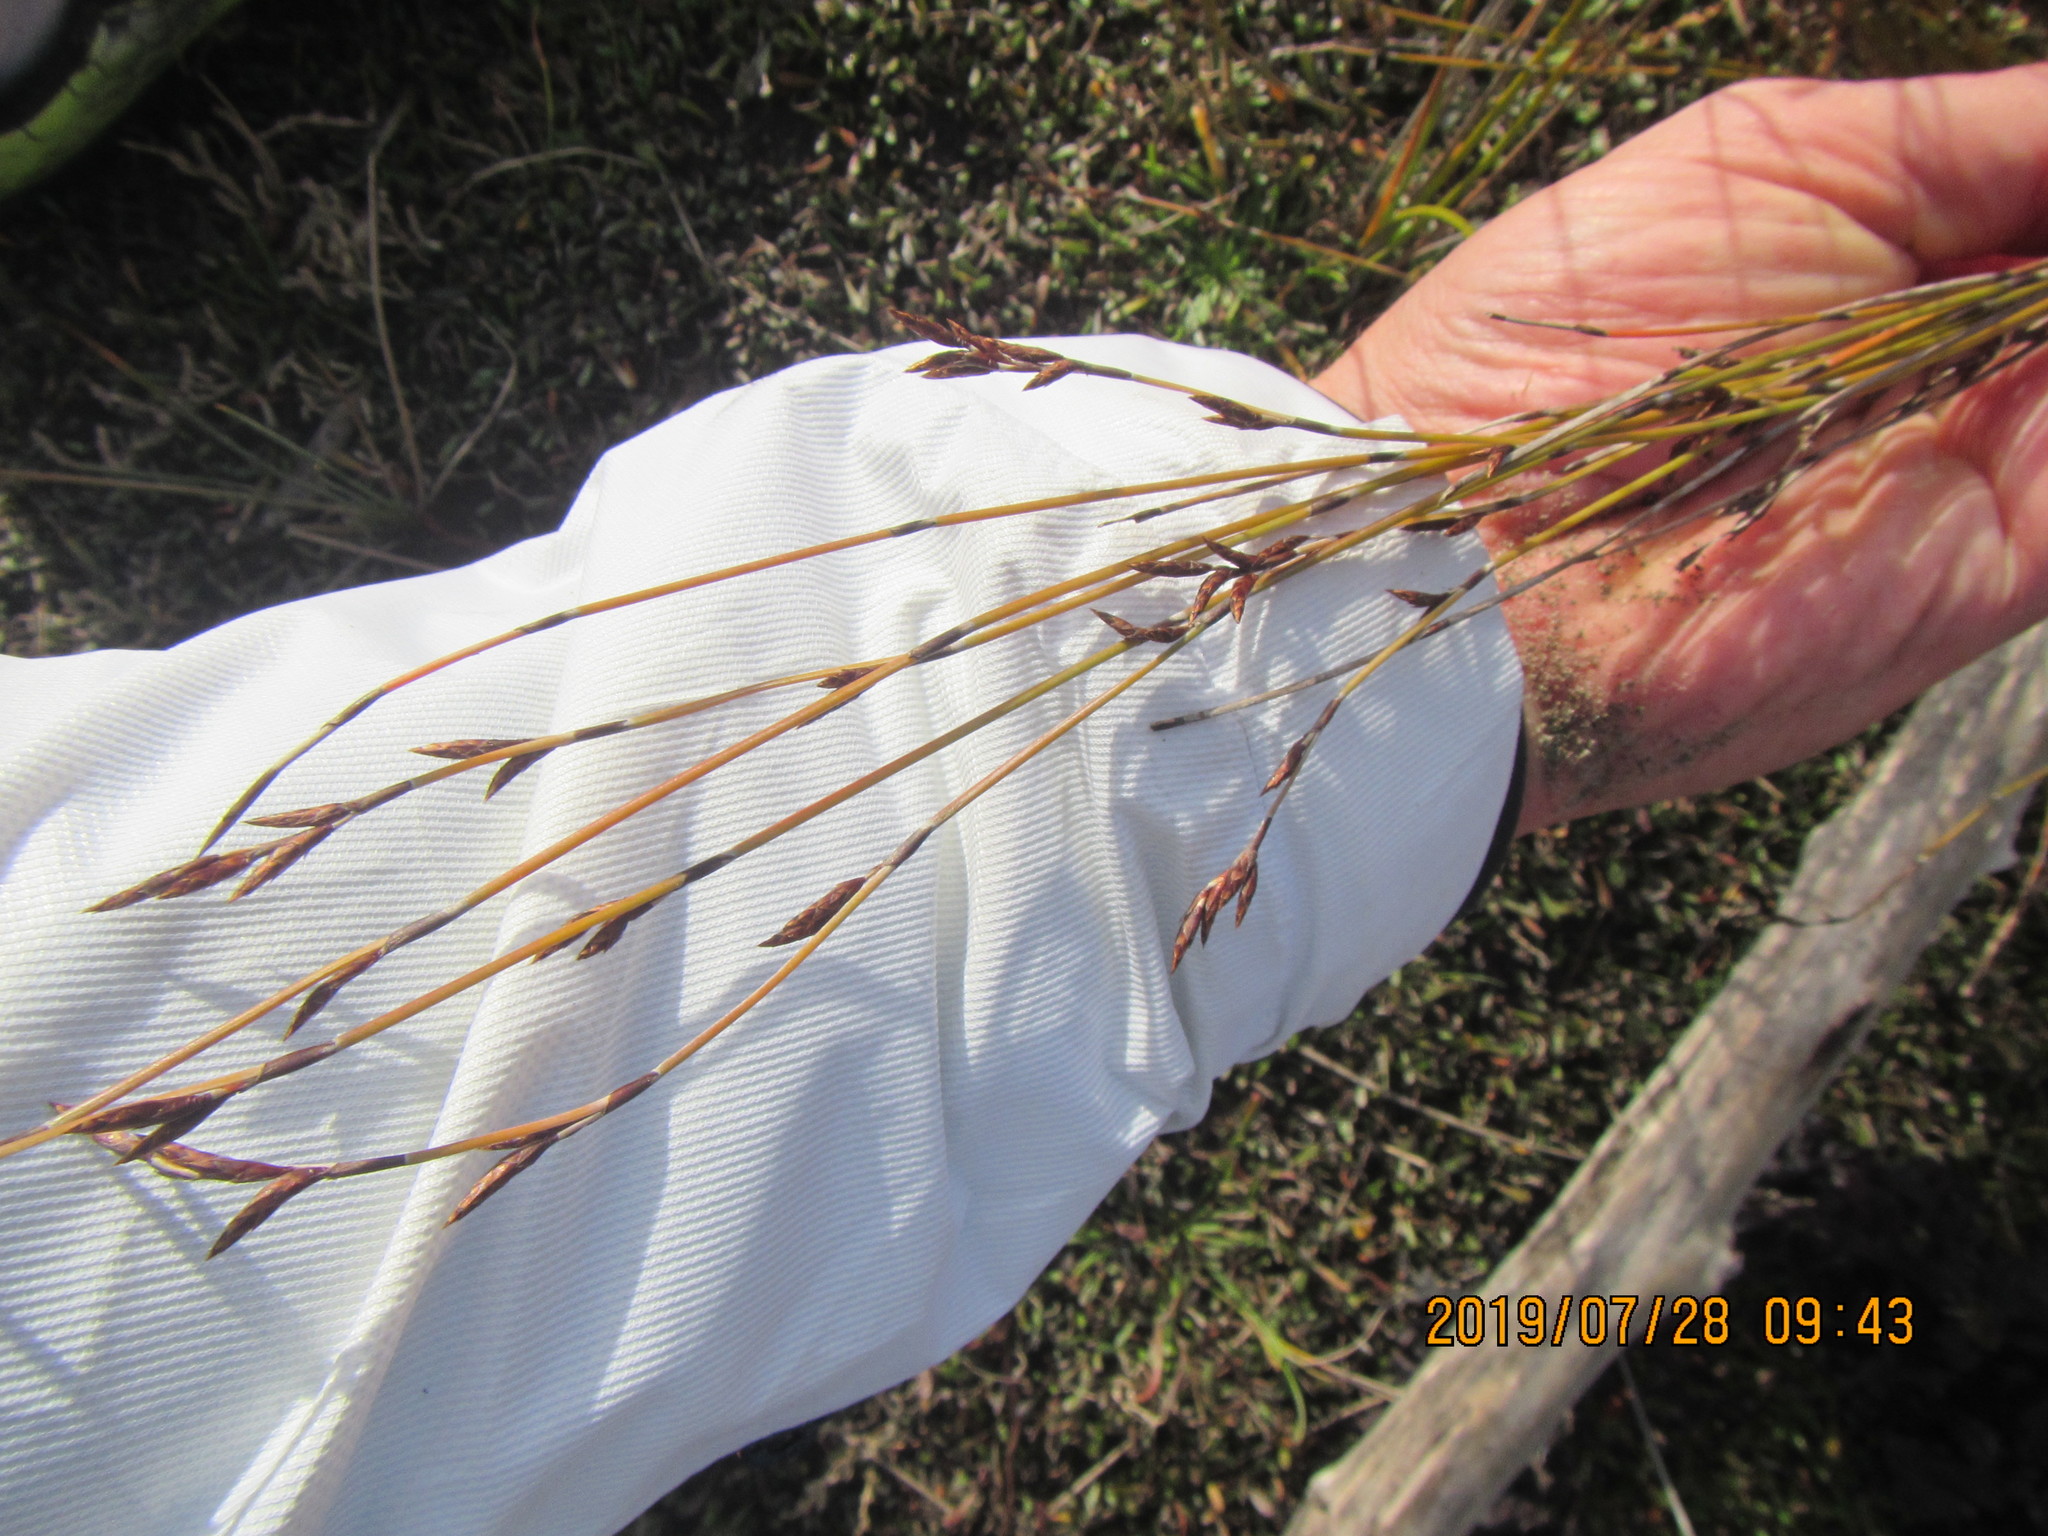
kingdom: Plantae
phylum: Tracheophyta
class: Liliopsida
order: Poales
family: Restionaceae
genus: Apodasmia
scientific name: Apodasmia similis
